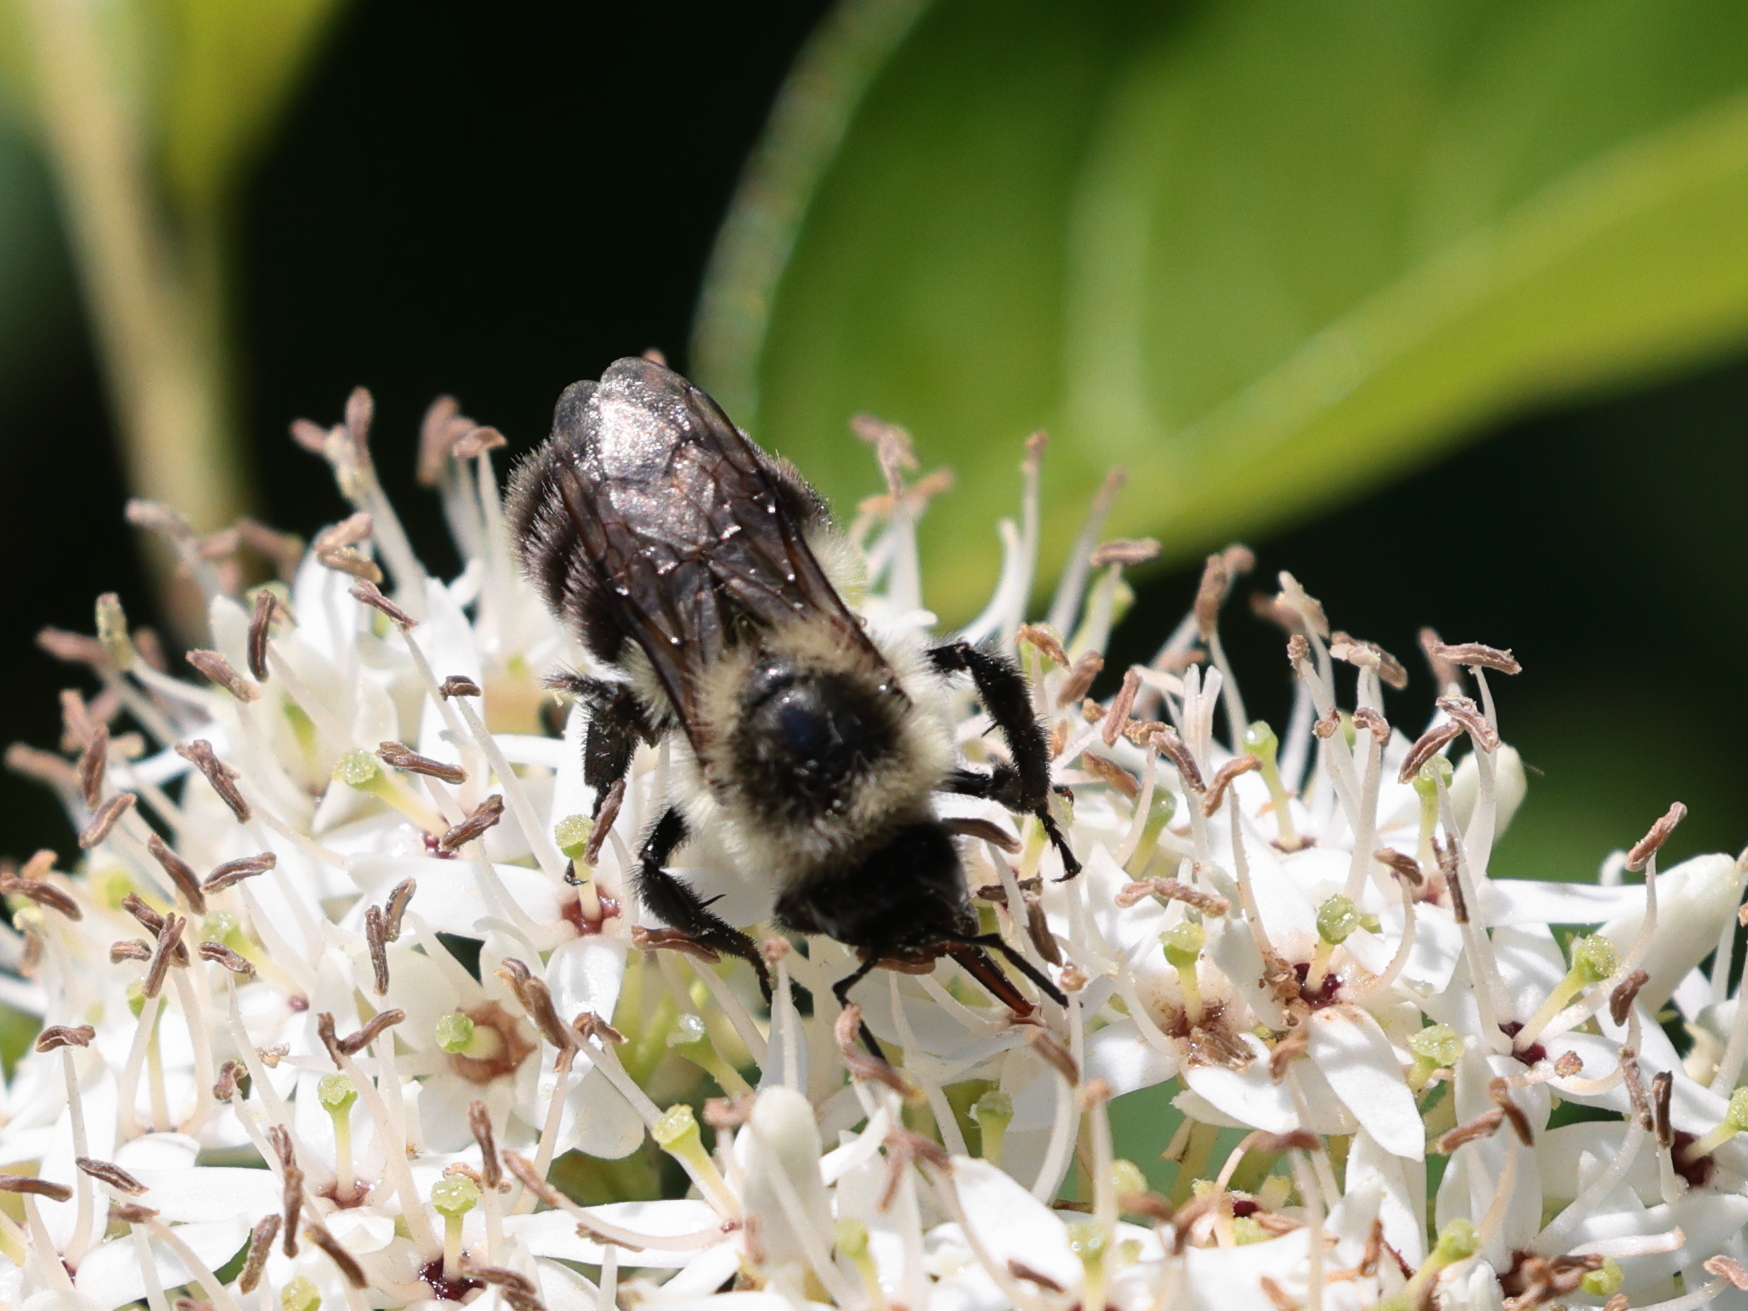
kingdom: Animalia
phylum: Arthropoda
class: Insecta
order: Hymenoptera
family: Apidae
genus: Bombus
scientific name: Bombus impatiens
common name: Common eastern bumble bee
